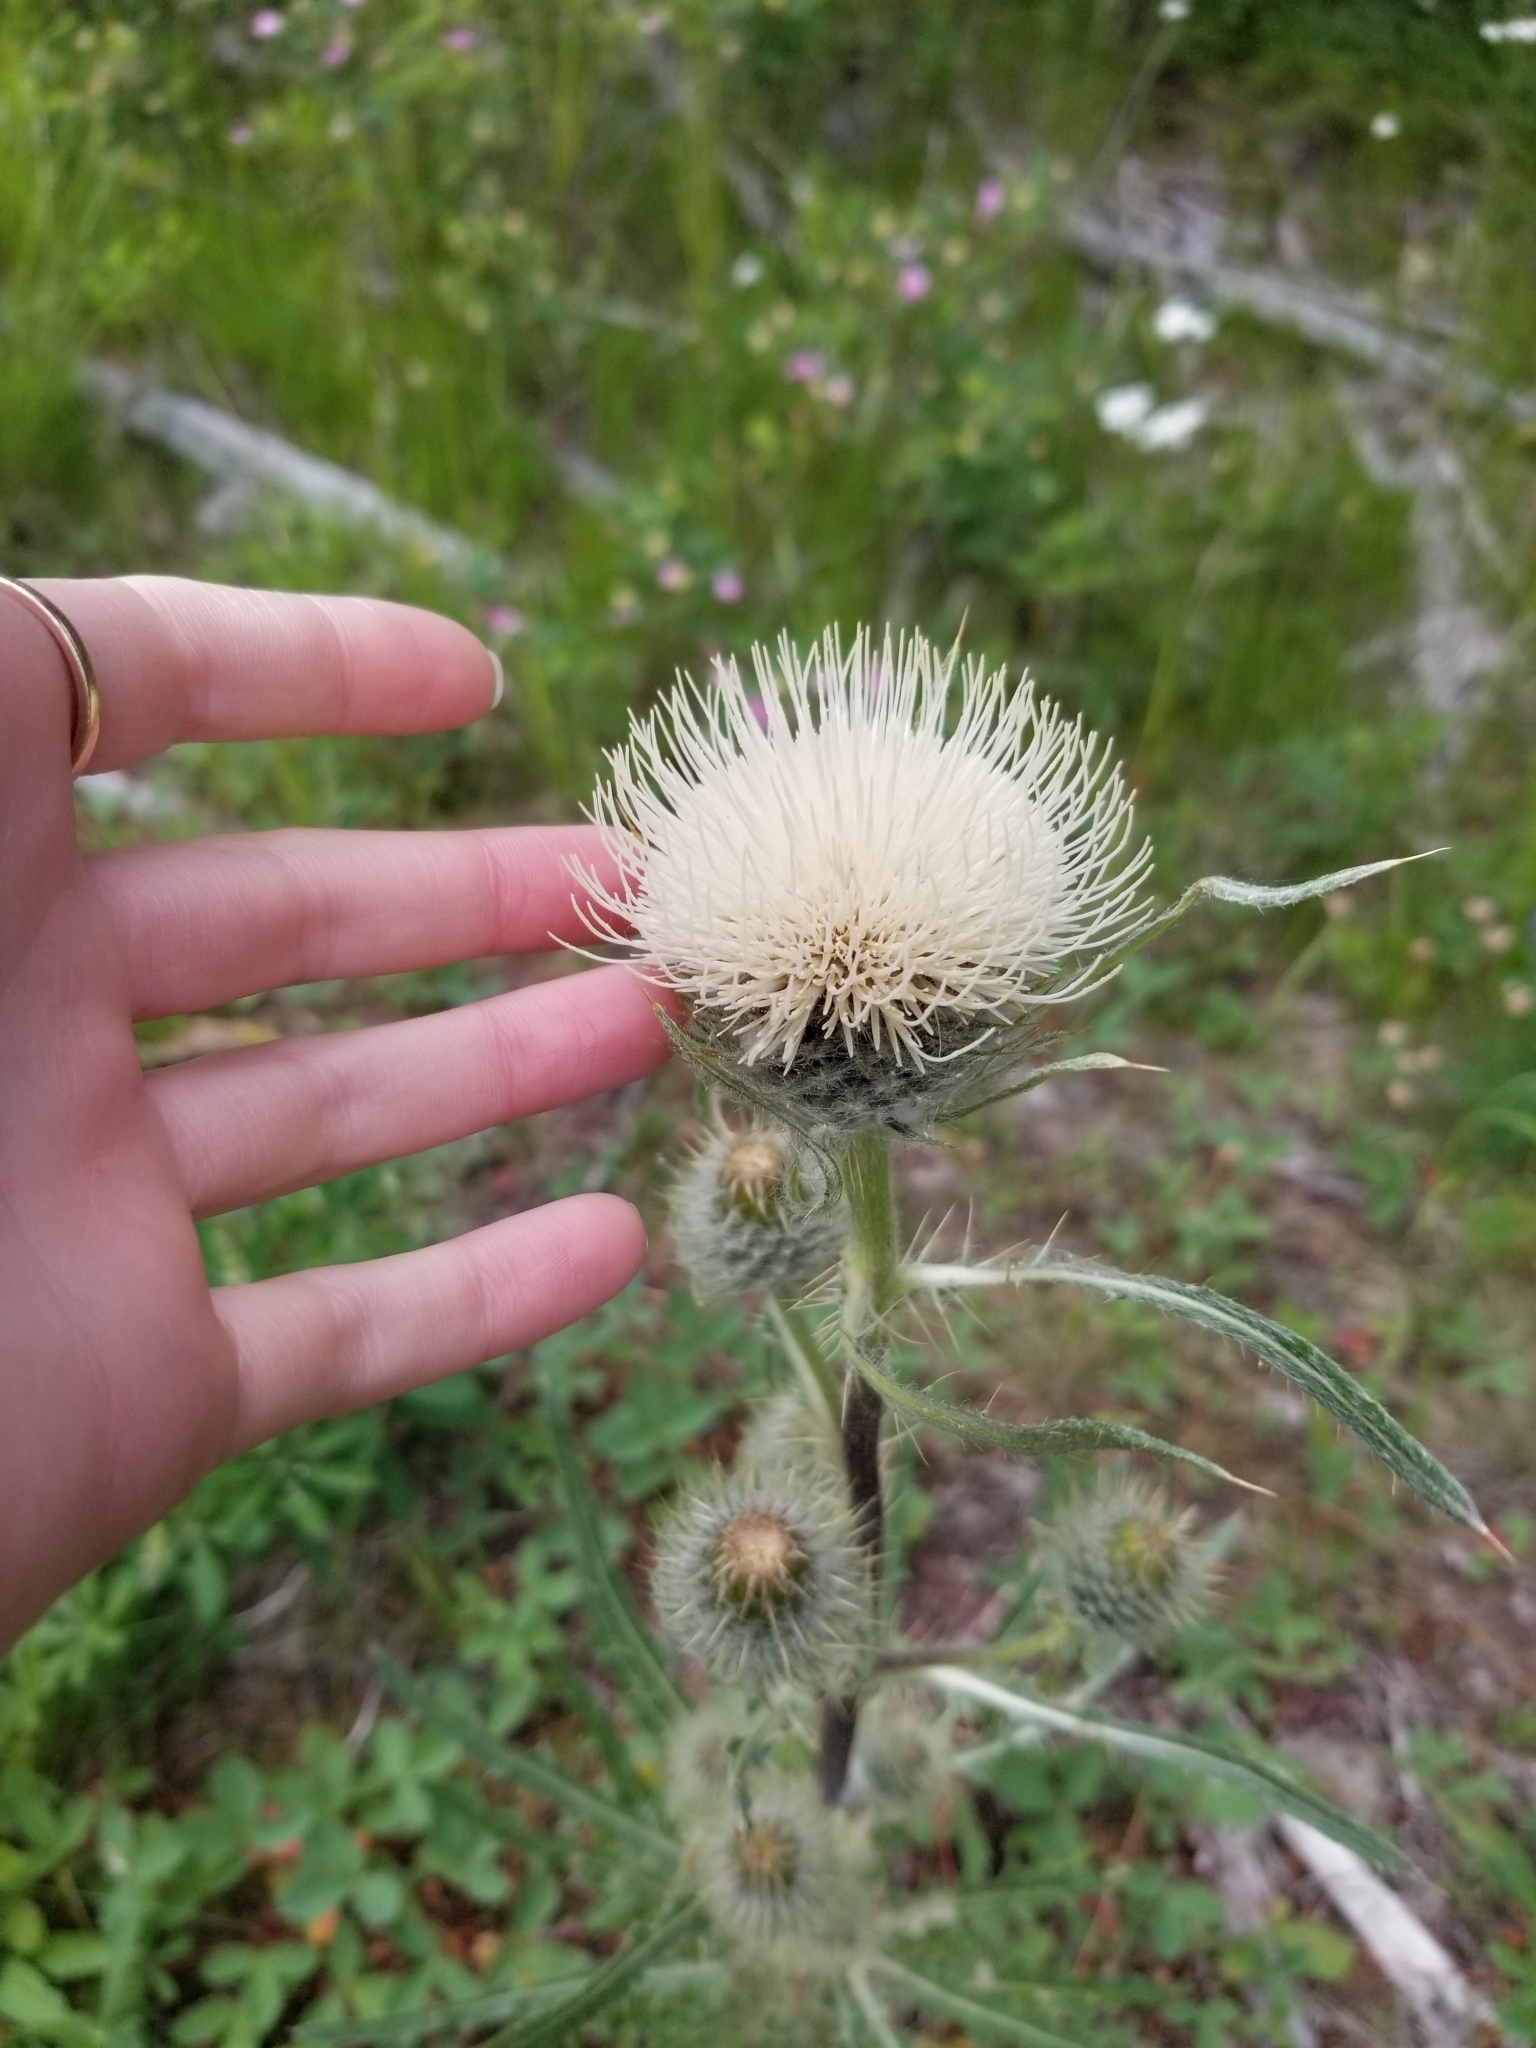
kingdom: Plantae
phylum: Tracheophyta
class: Magnoliopsida
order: Asterales
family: Asteraceae
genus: Cirsium
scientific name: Cirsium hookerianum
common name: Hooker's thistle
